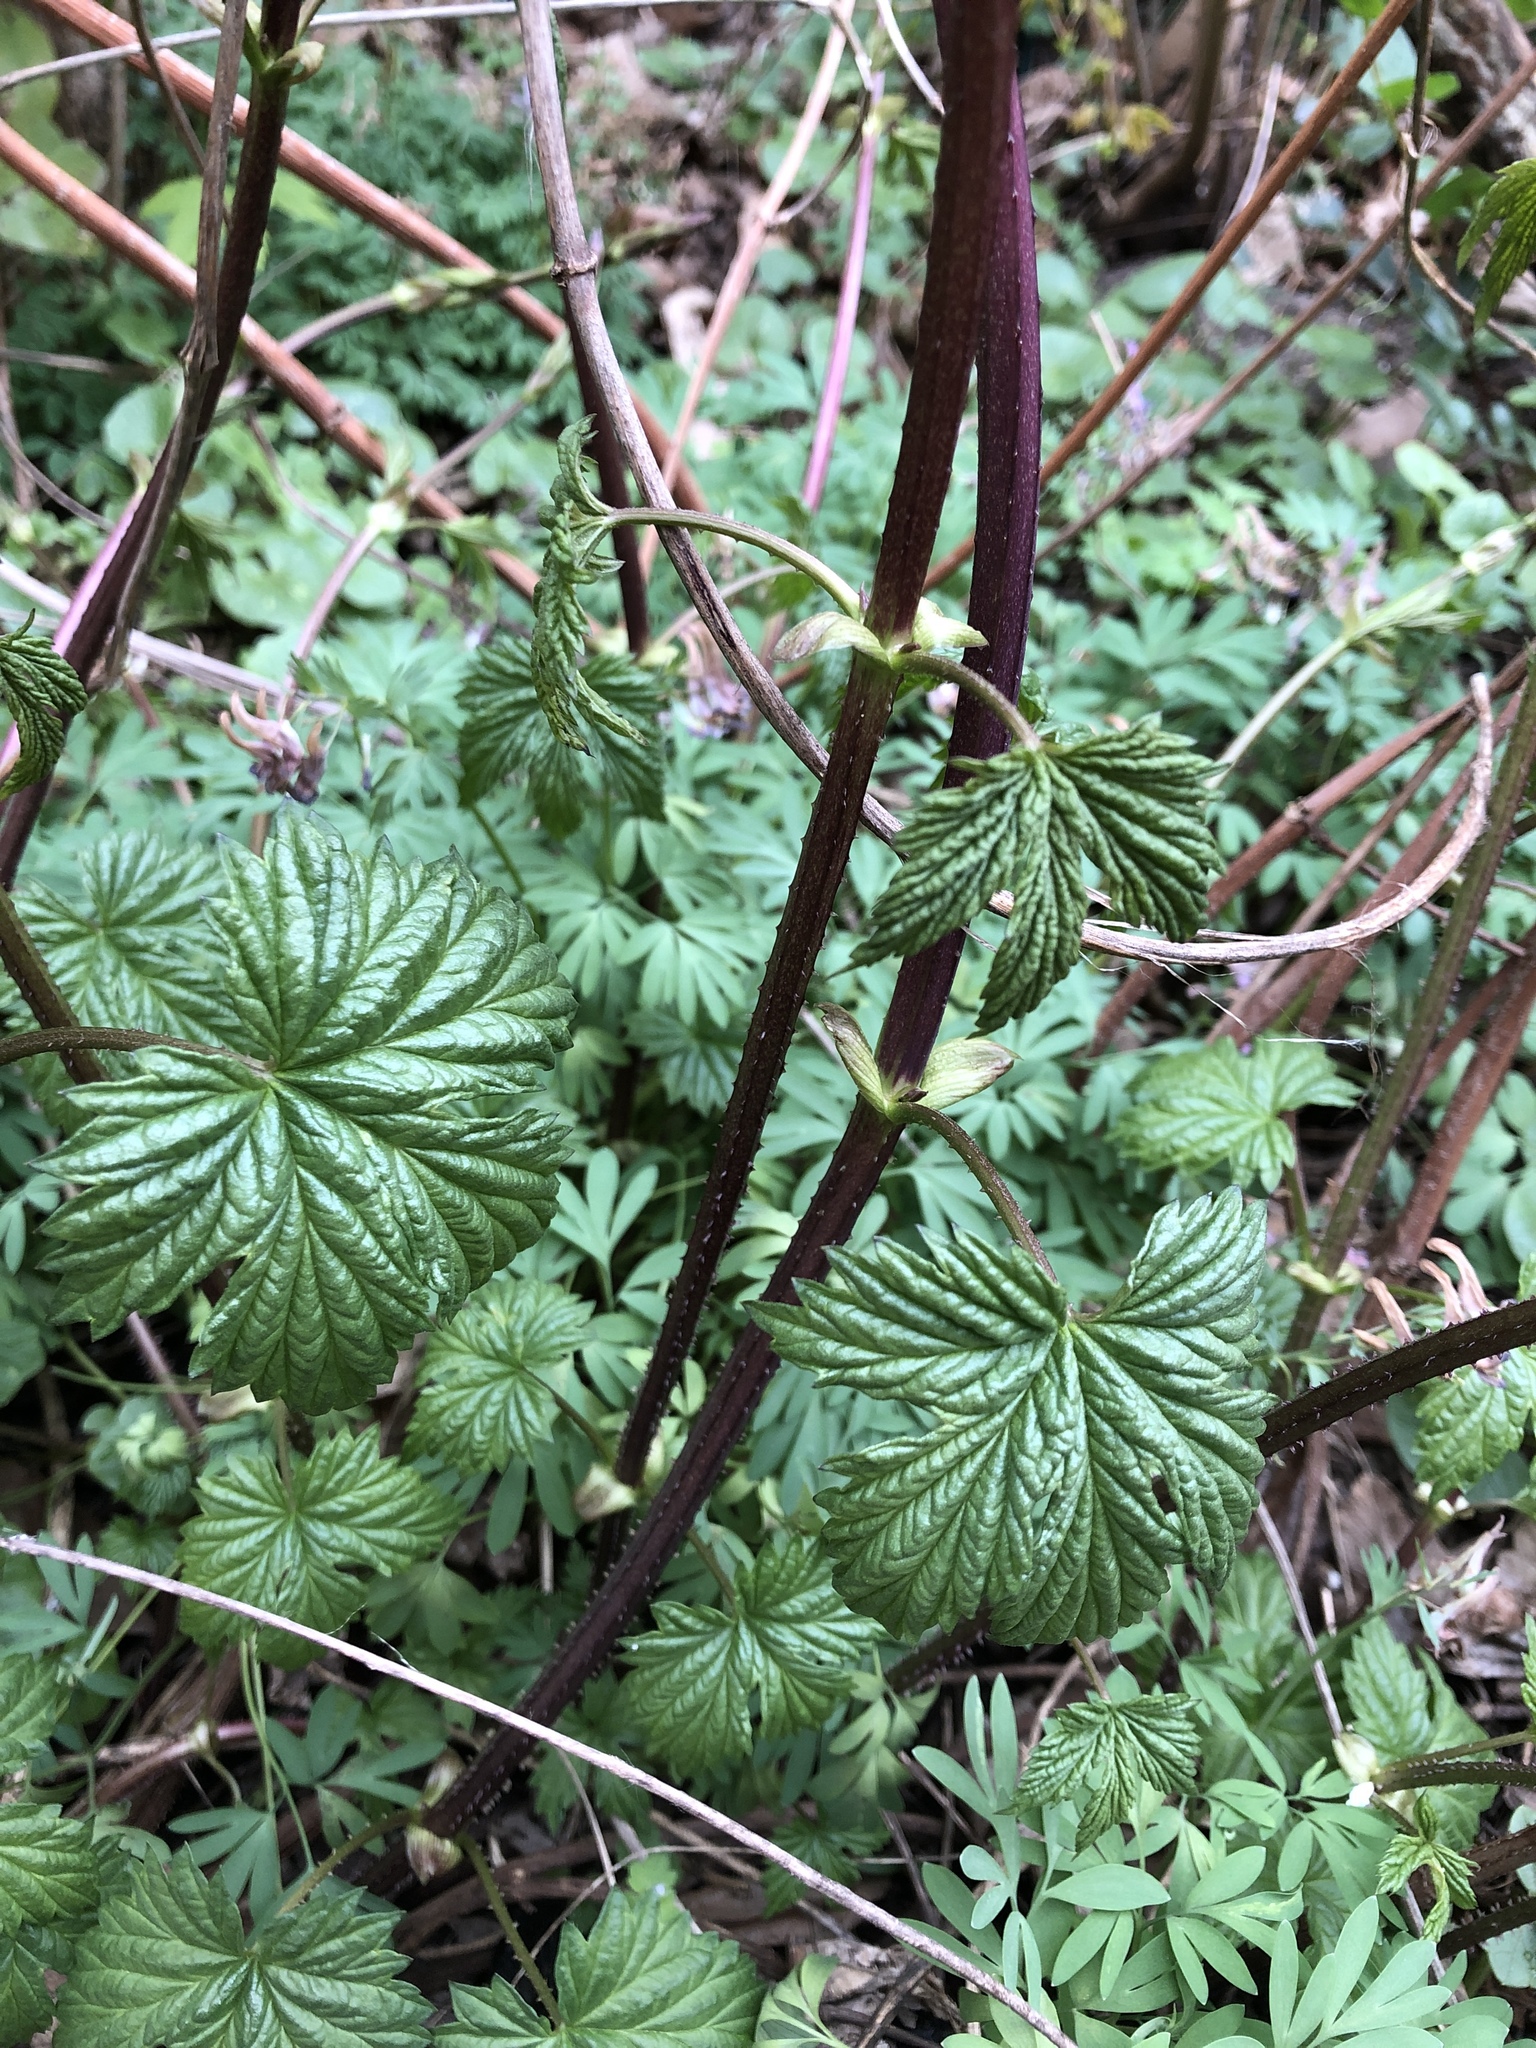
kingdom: Plantae
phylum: Tracheophyta
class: Magnoliopsida
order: Rosales
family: Cannabaceae
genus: Humulus
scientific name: Humulus lupulus
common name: Hop
